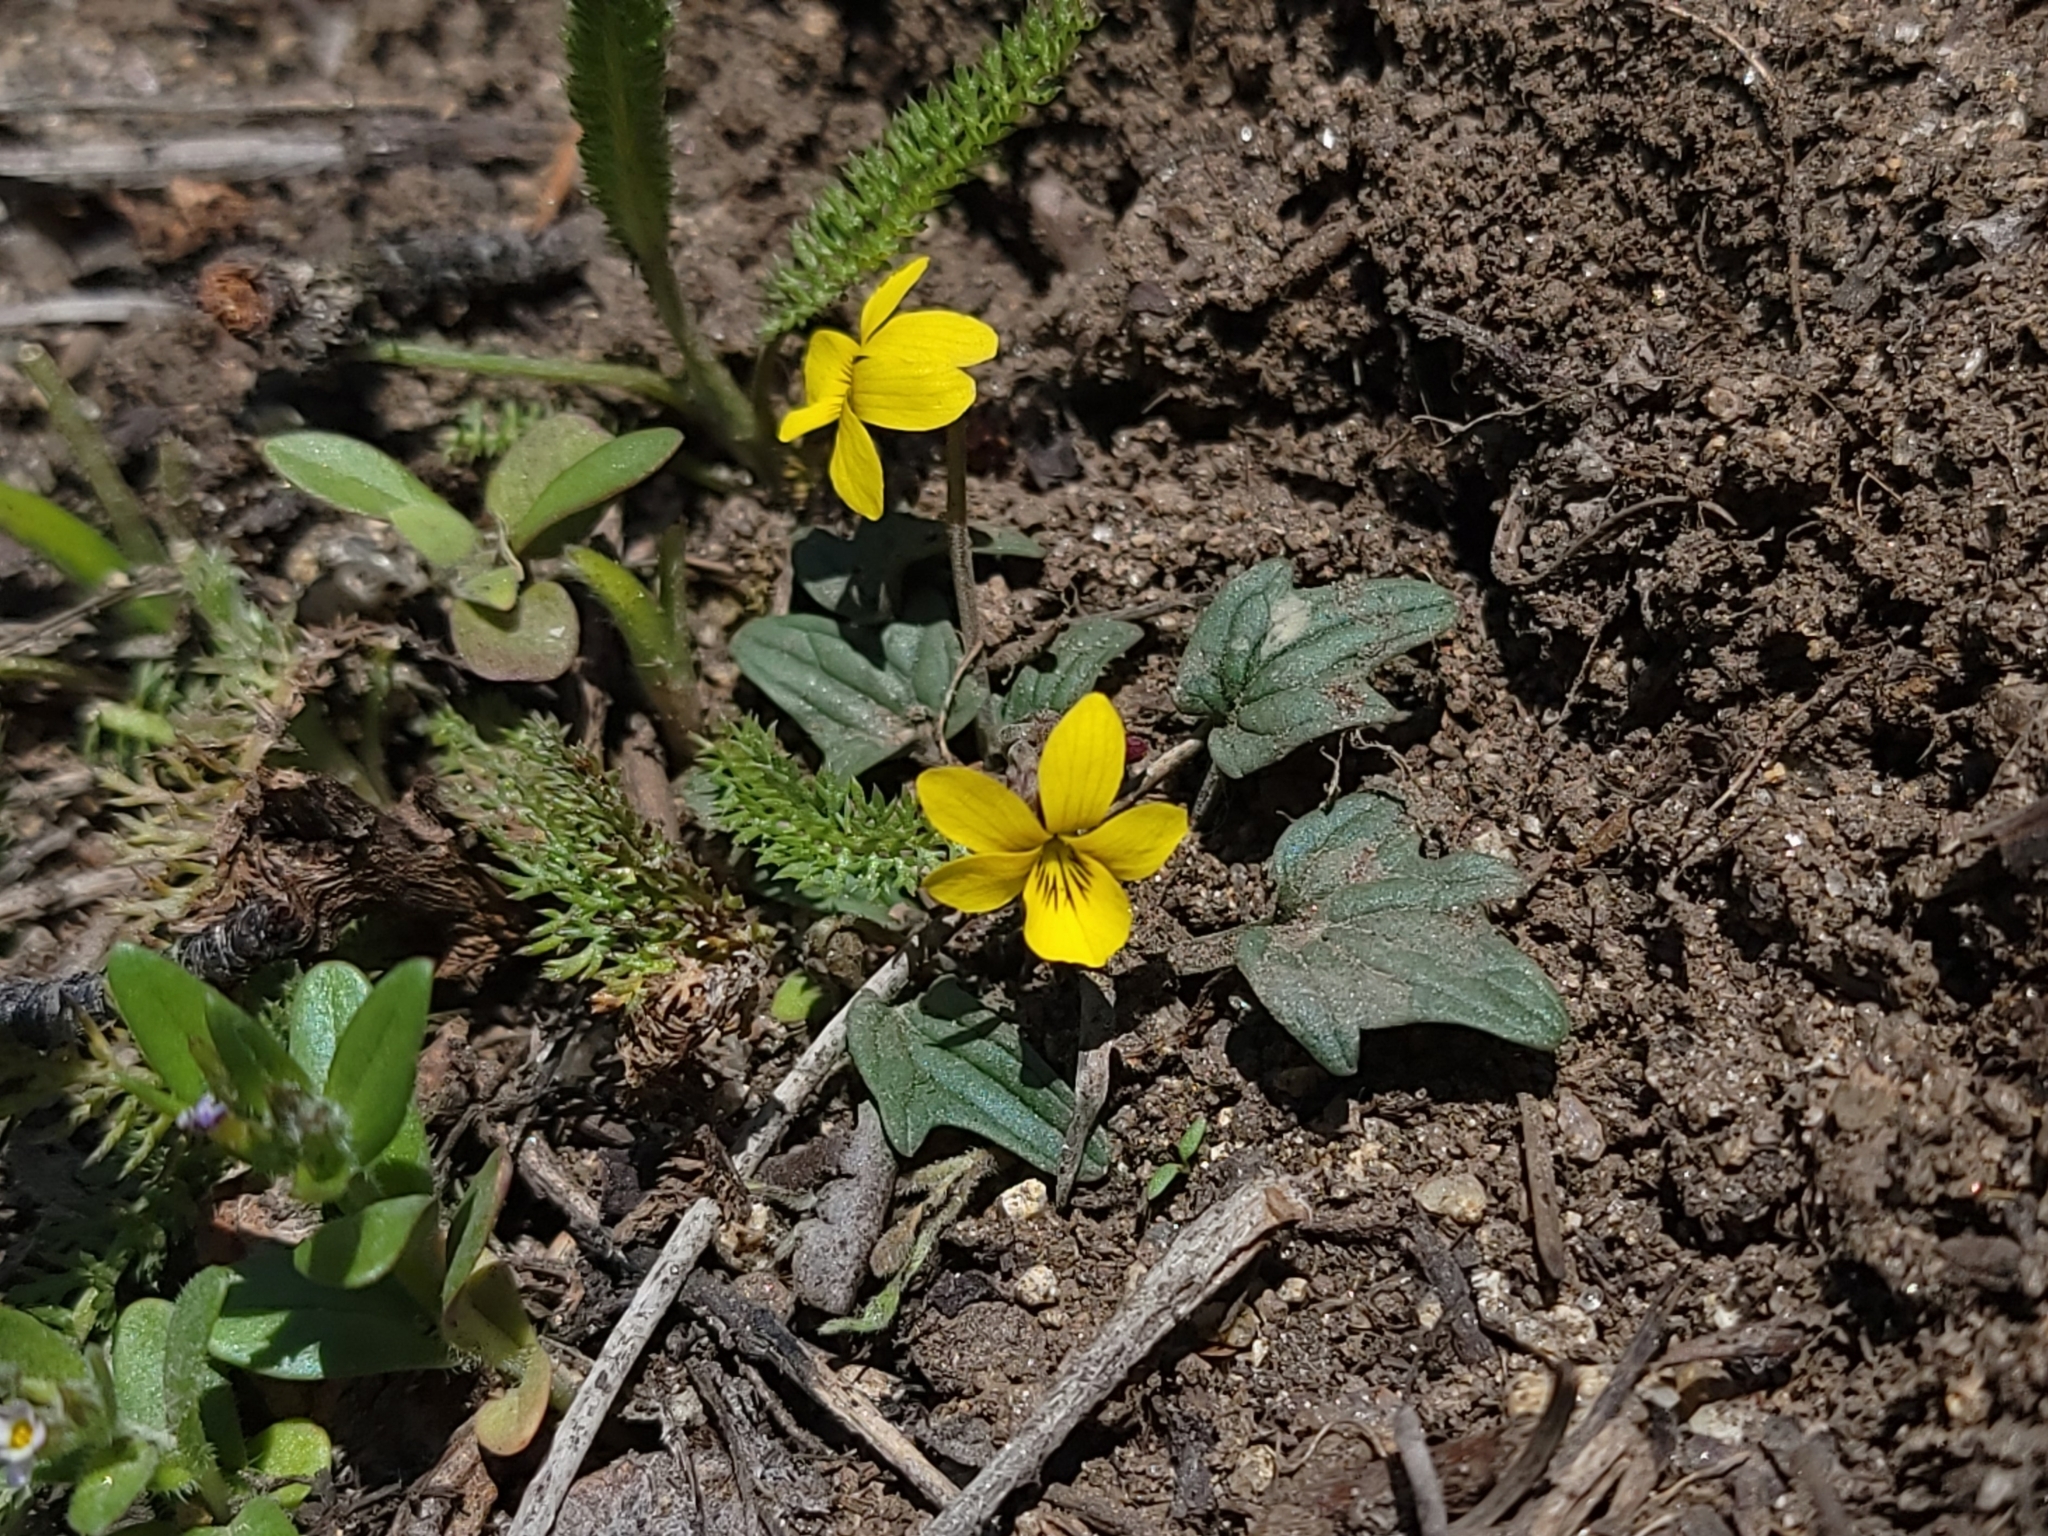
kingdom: Plantae
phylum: Tracheophyta
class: Magnoliopsida
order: Malpighiales
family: Violaceae
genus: Viola
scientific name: Viola purpurea
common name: Pine violet
